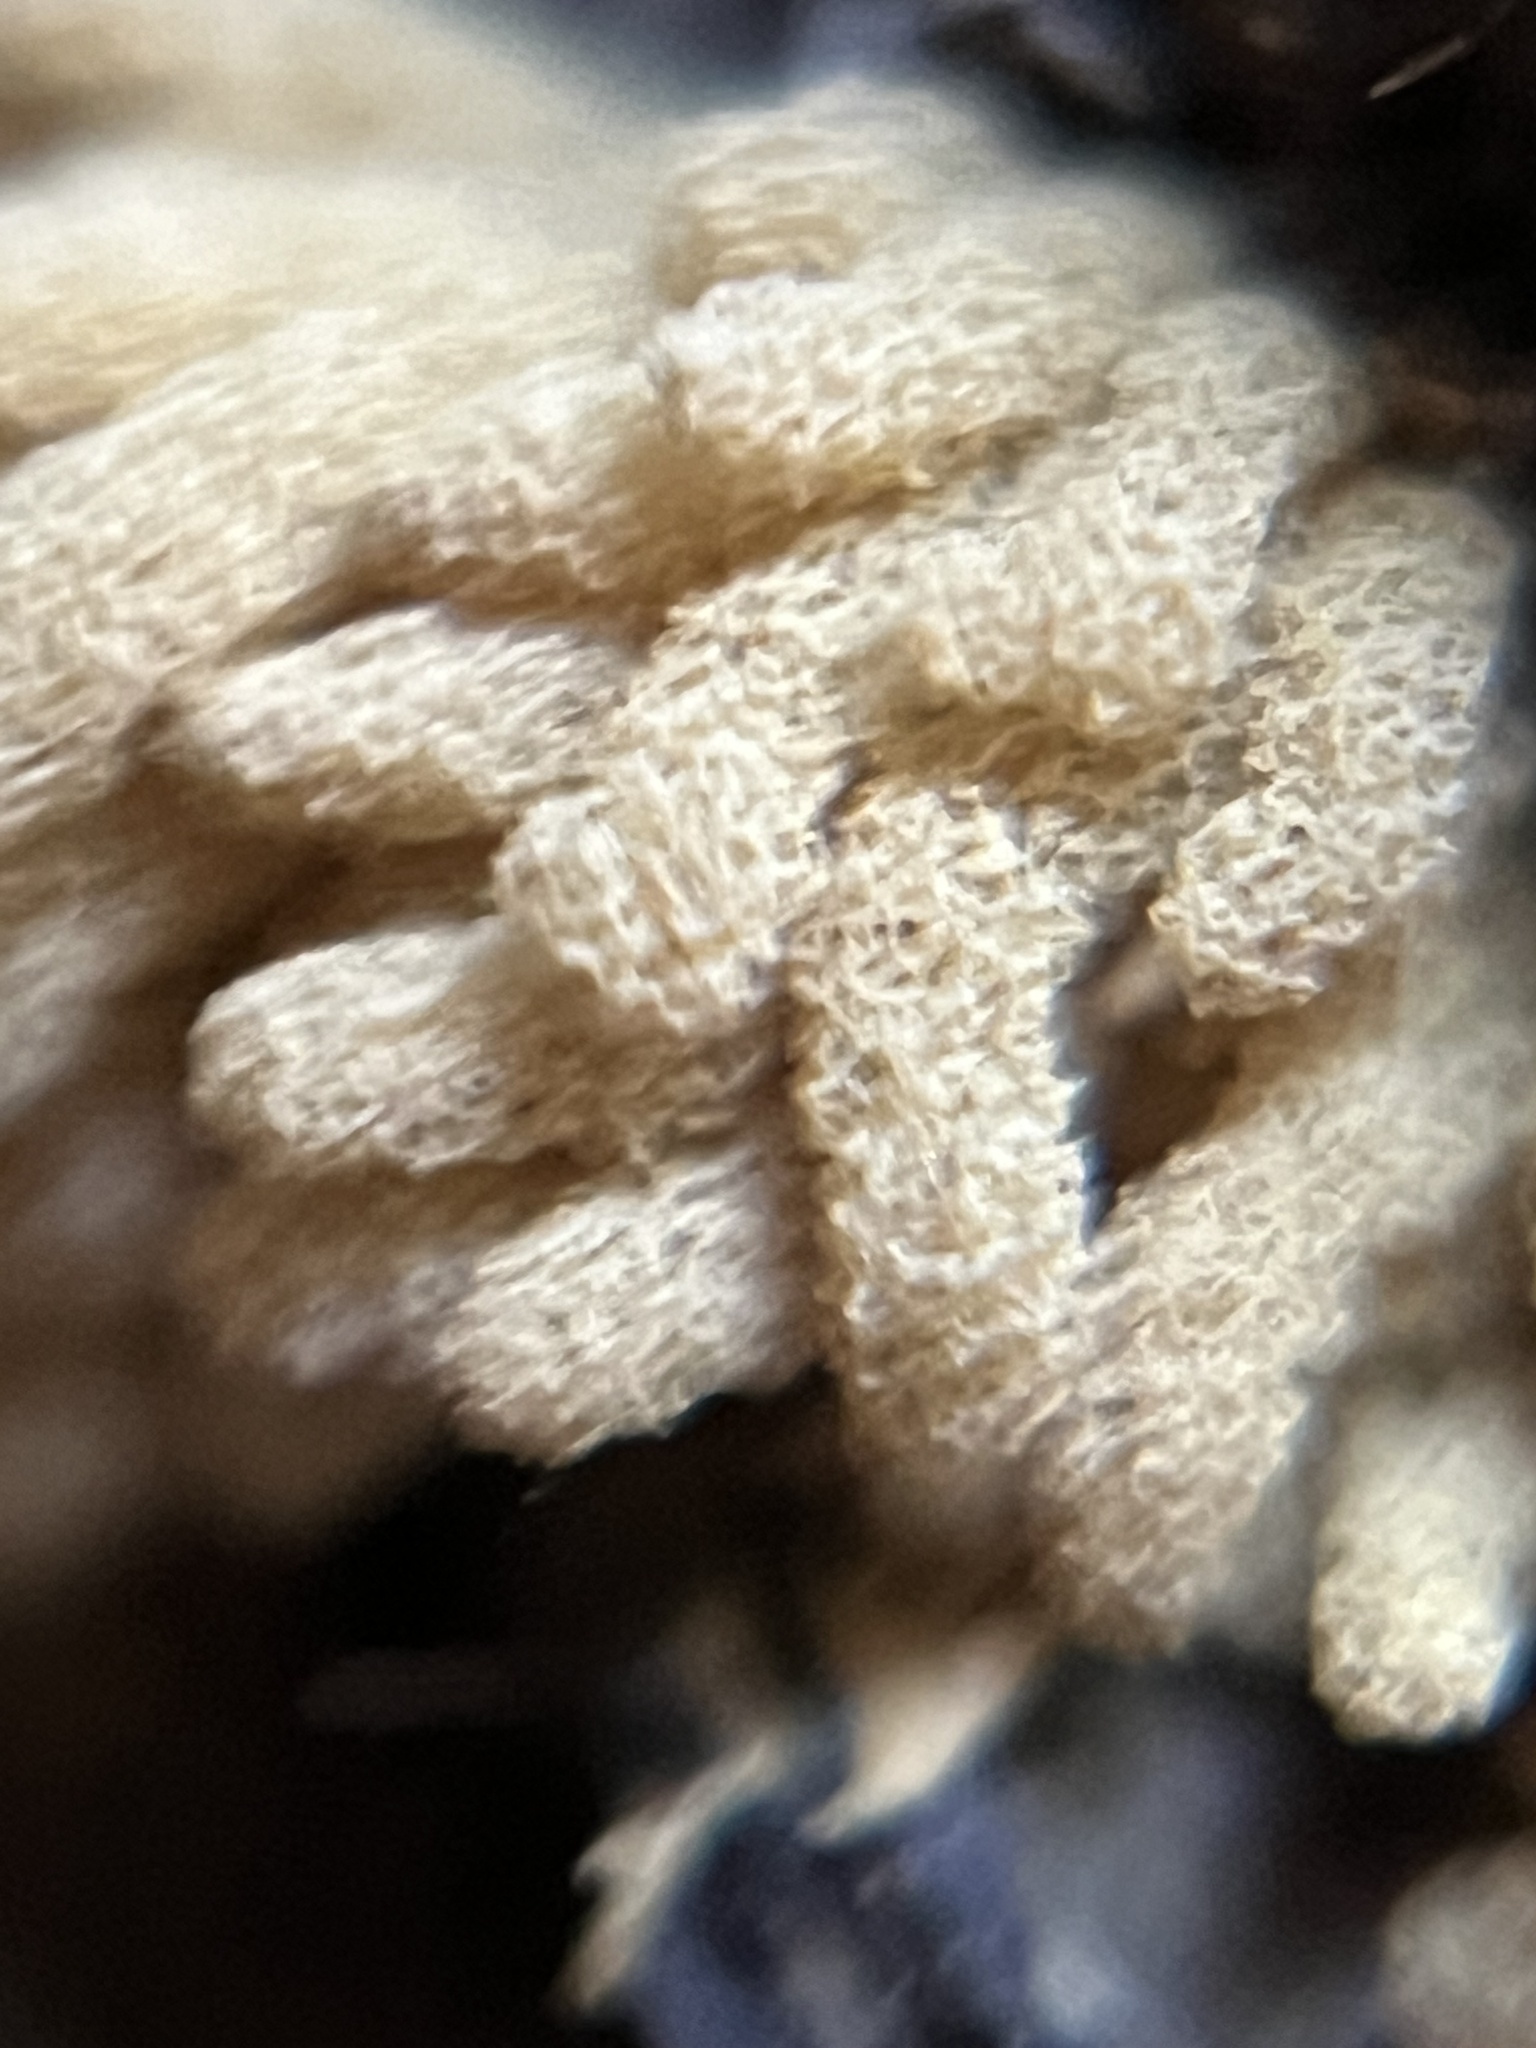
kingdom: Protozoa
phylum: Mycetozoa
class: Myxomycetes
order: Trichiales
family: Arcyriaceae
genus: Arcyria
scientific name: Arcyria obvelata
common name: Yellow carnival candy slime
